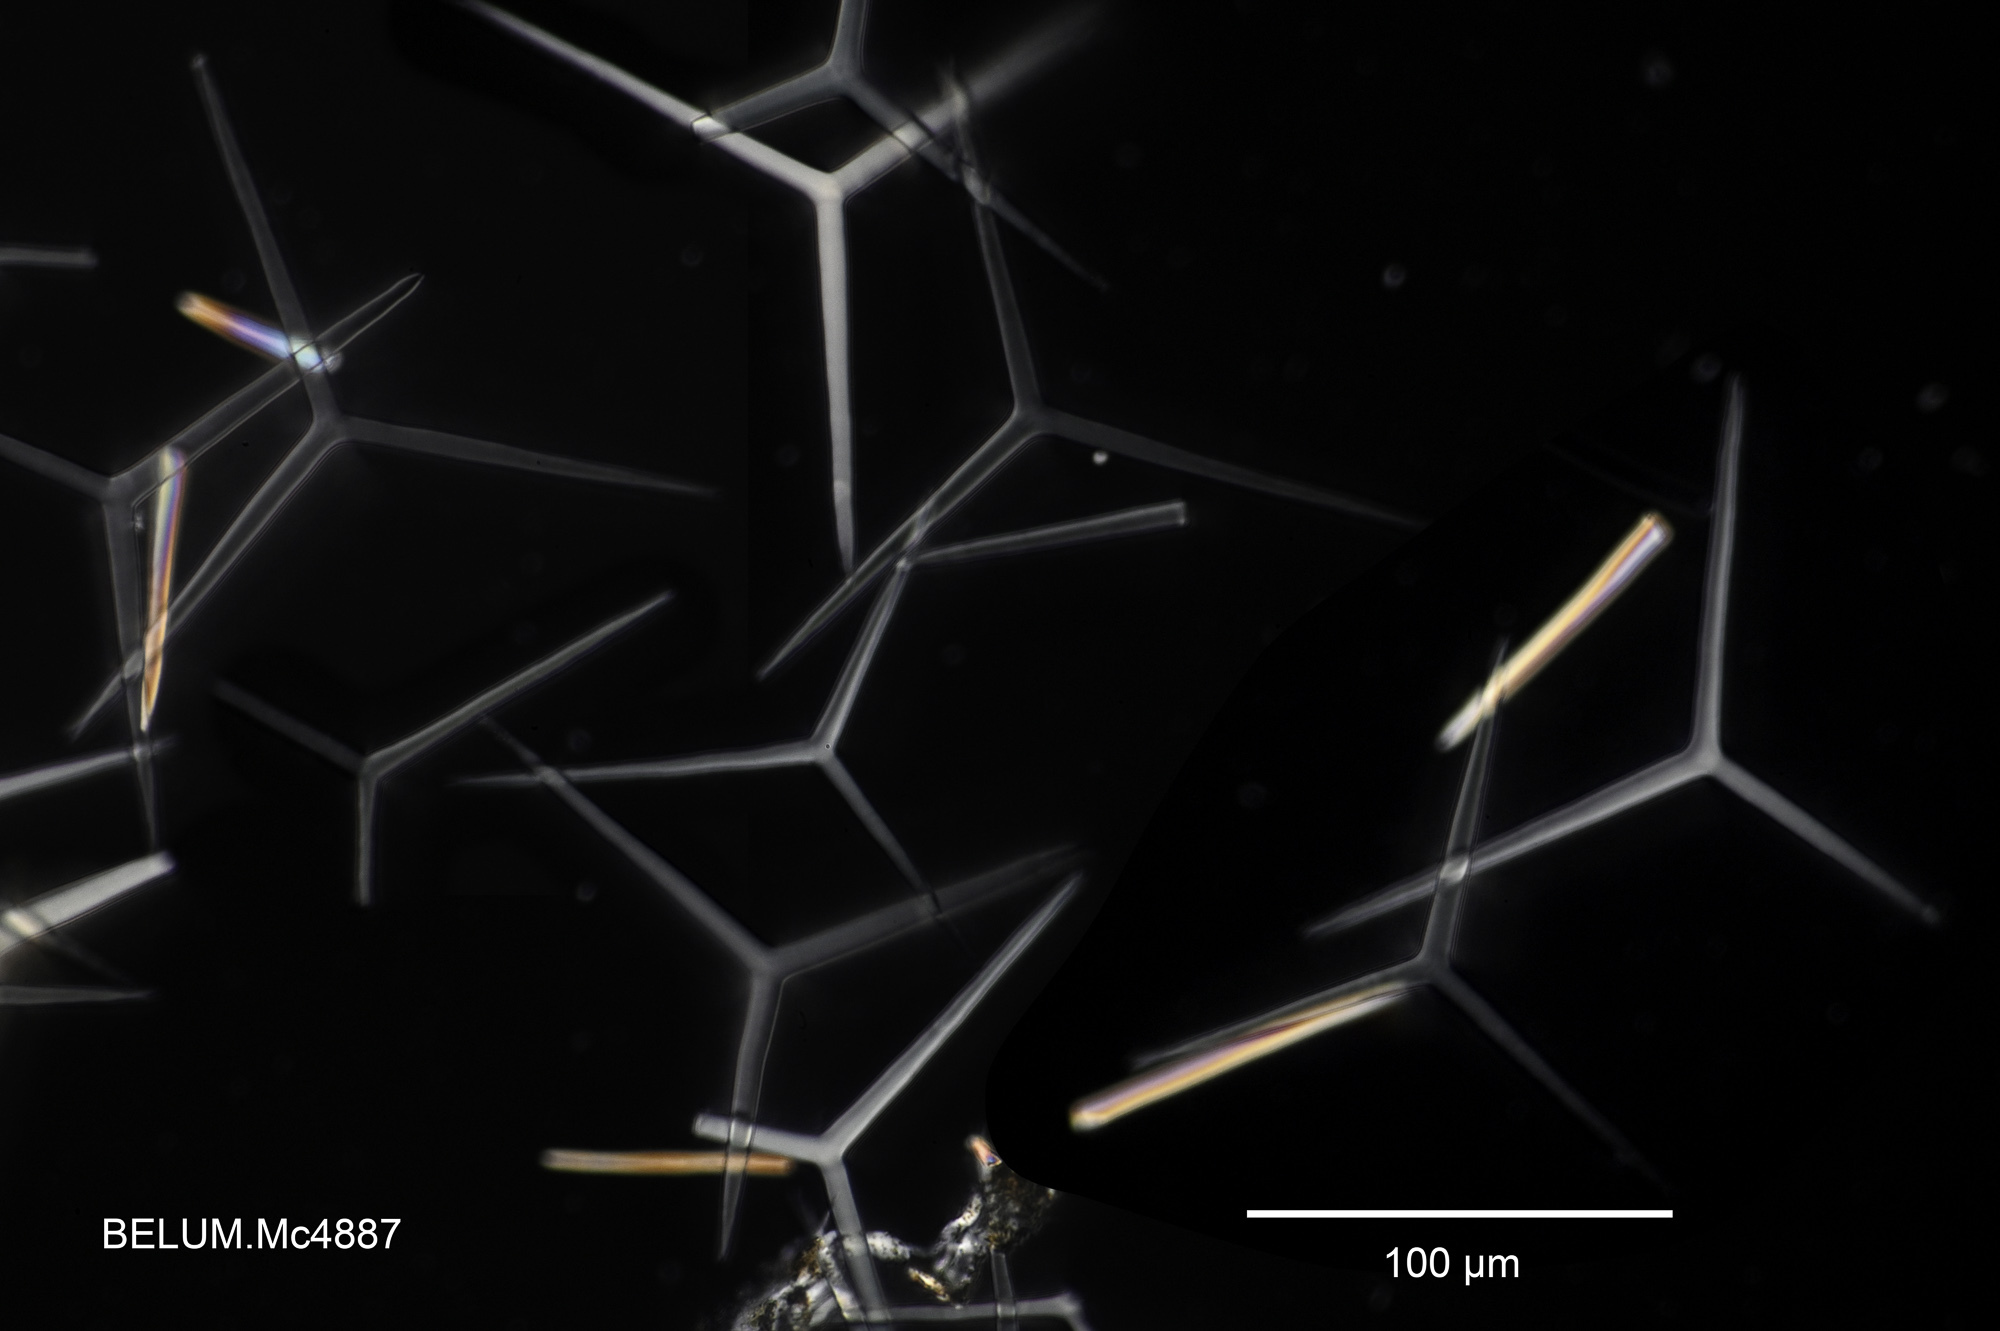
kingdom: Animalia
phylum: Porifera
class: Calcarea
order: Clathrinida
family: Clathrinidae
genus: Clathrina
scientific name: Clathrina rubra
